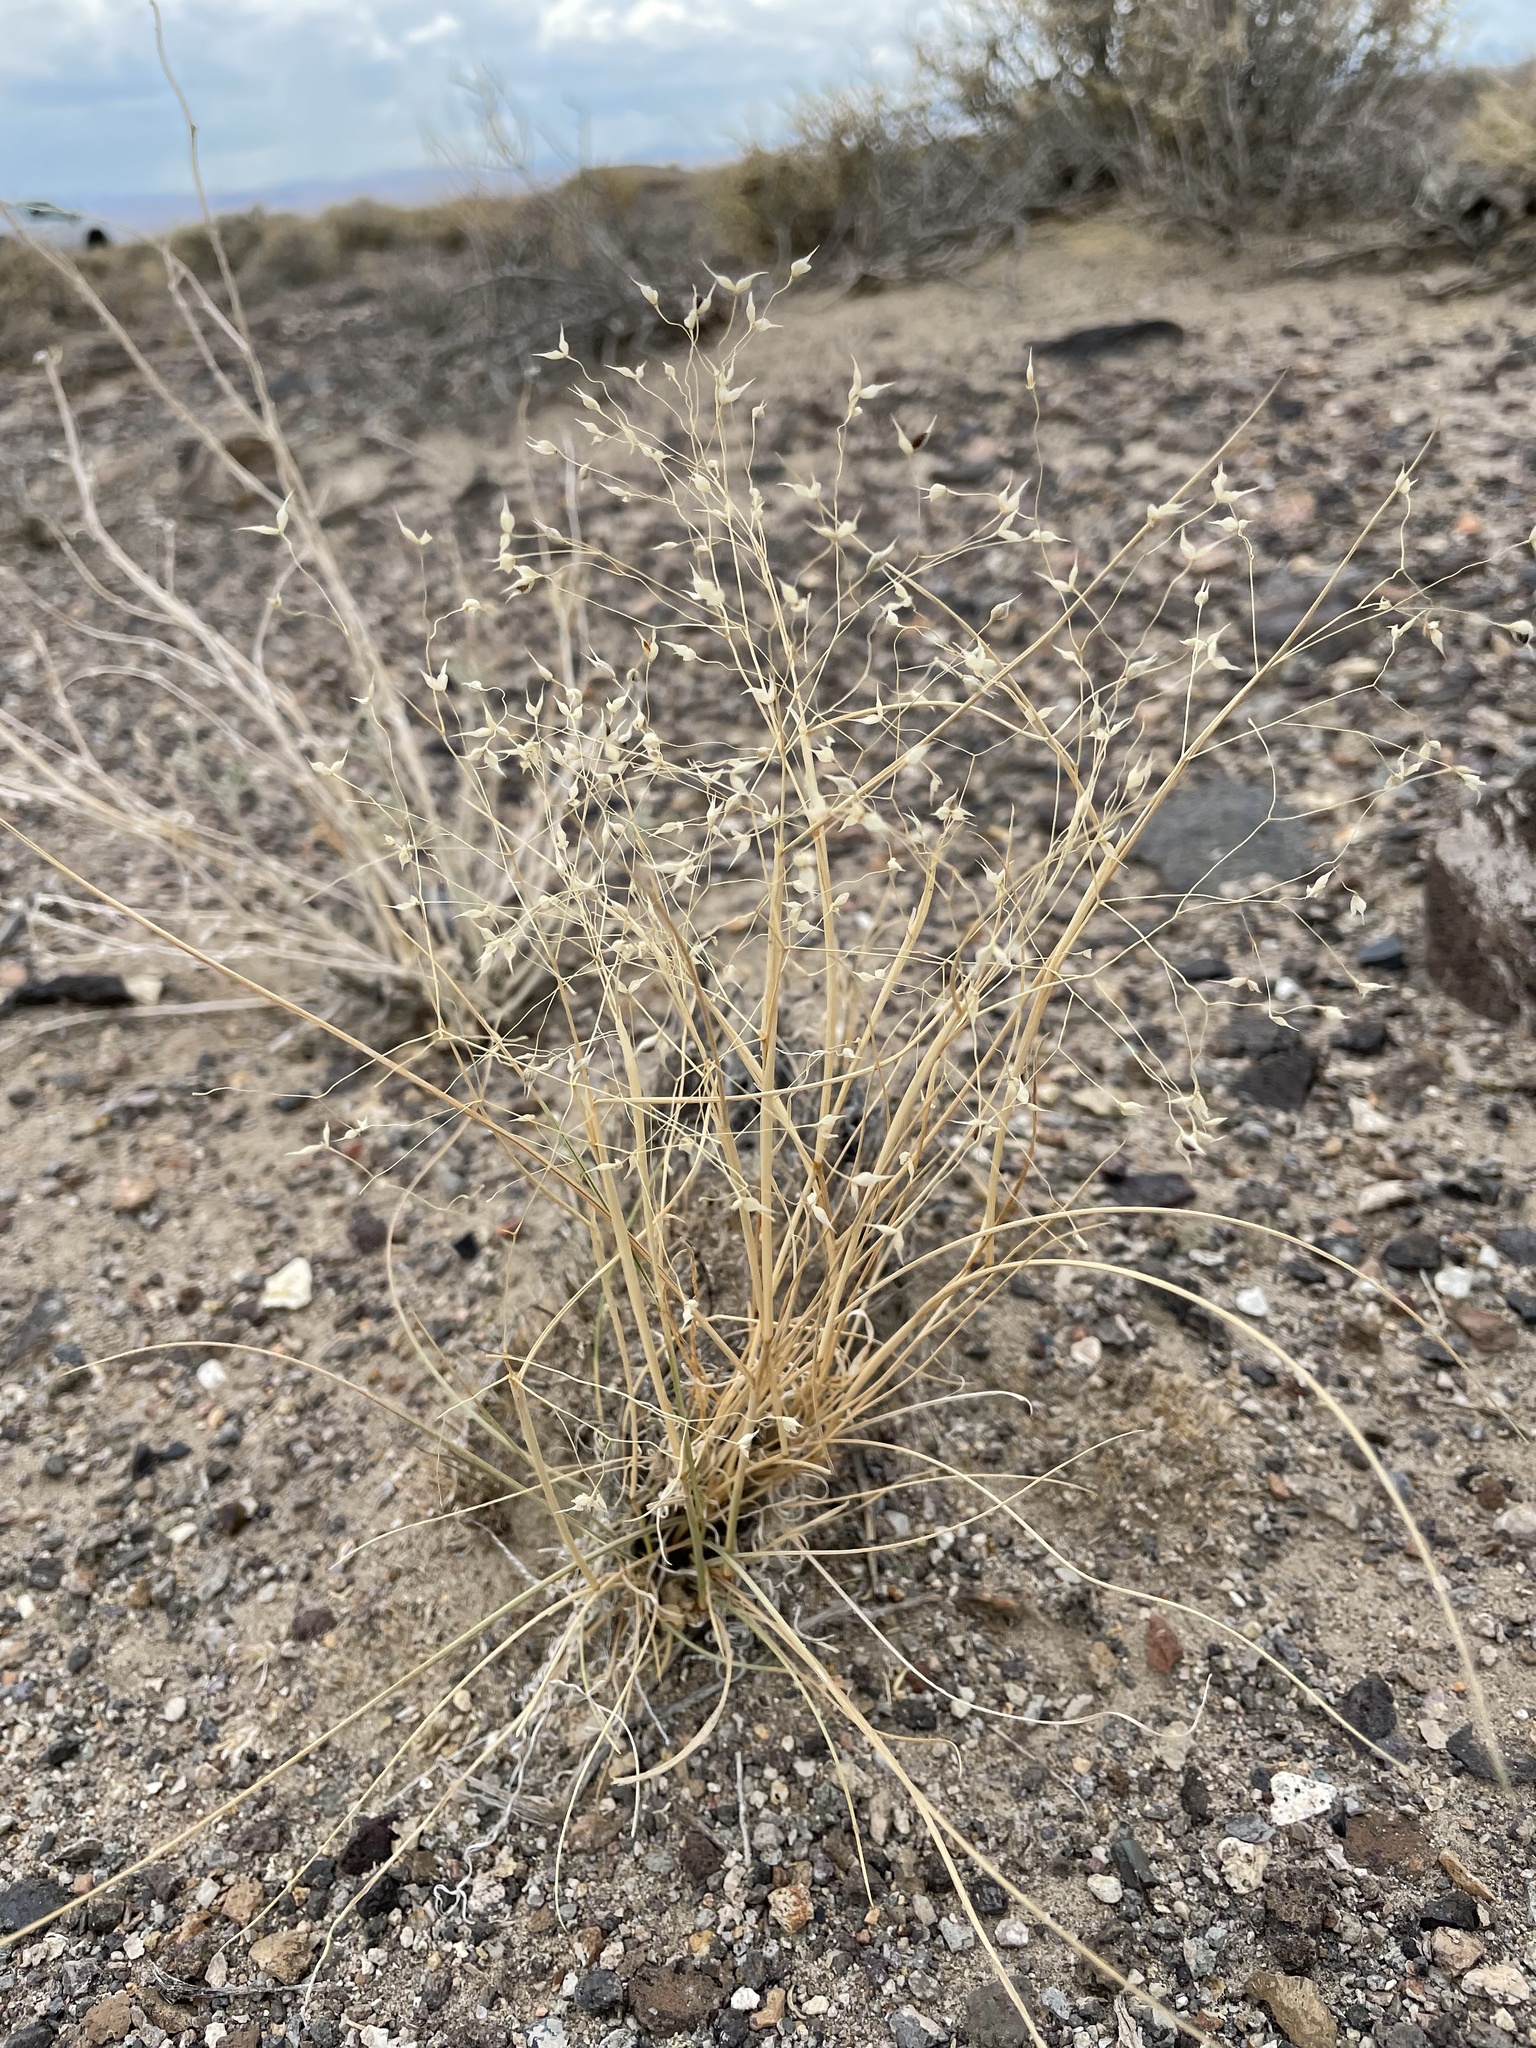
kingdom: Plantae
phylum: Tracheophyta
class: Liliopsida
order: Poales
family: Poaceae
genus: Eriocoma
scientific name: Eriocoma hymenoides
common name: Indian mountain ricegrass
